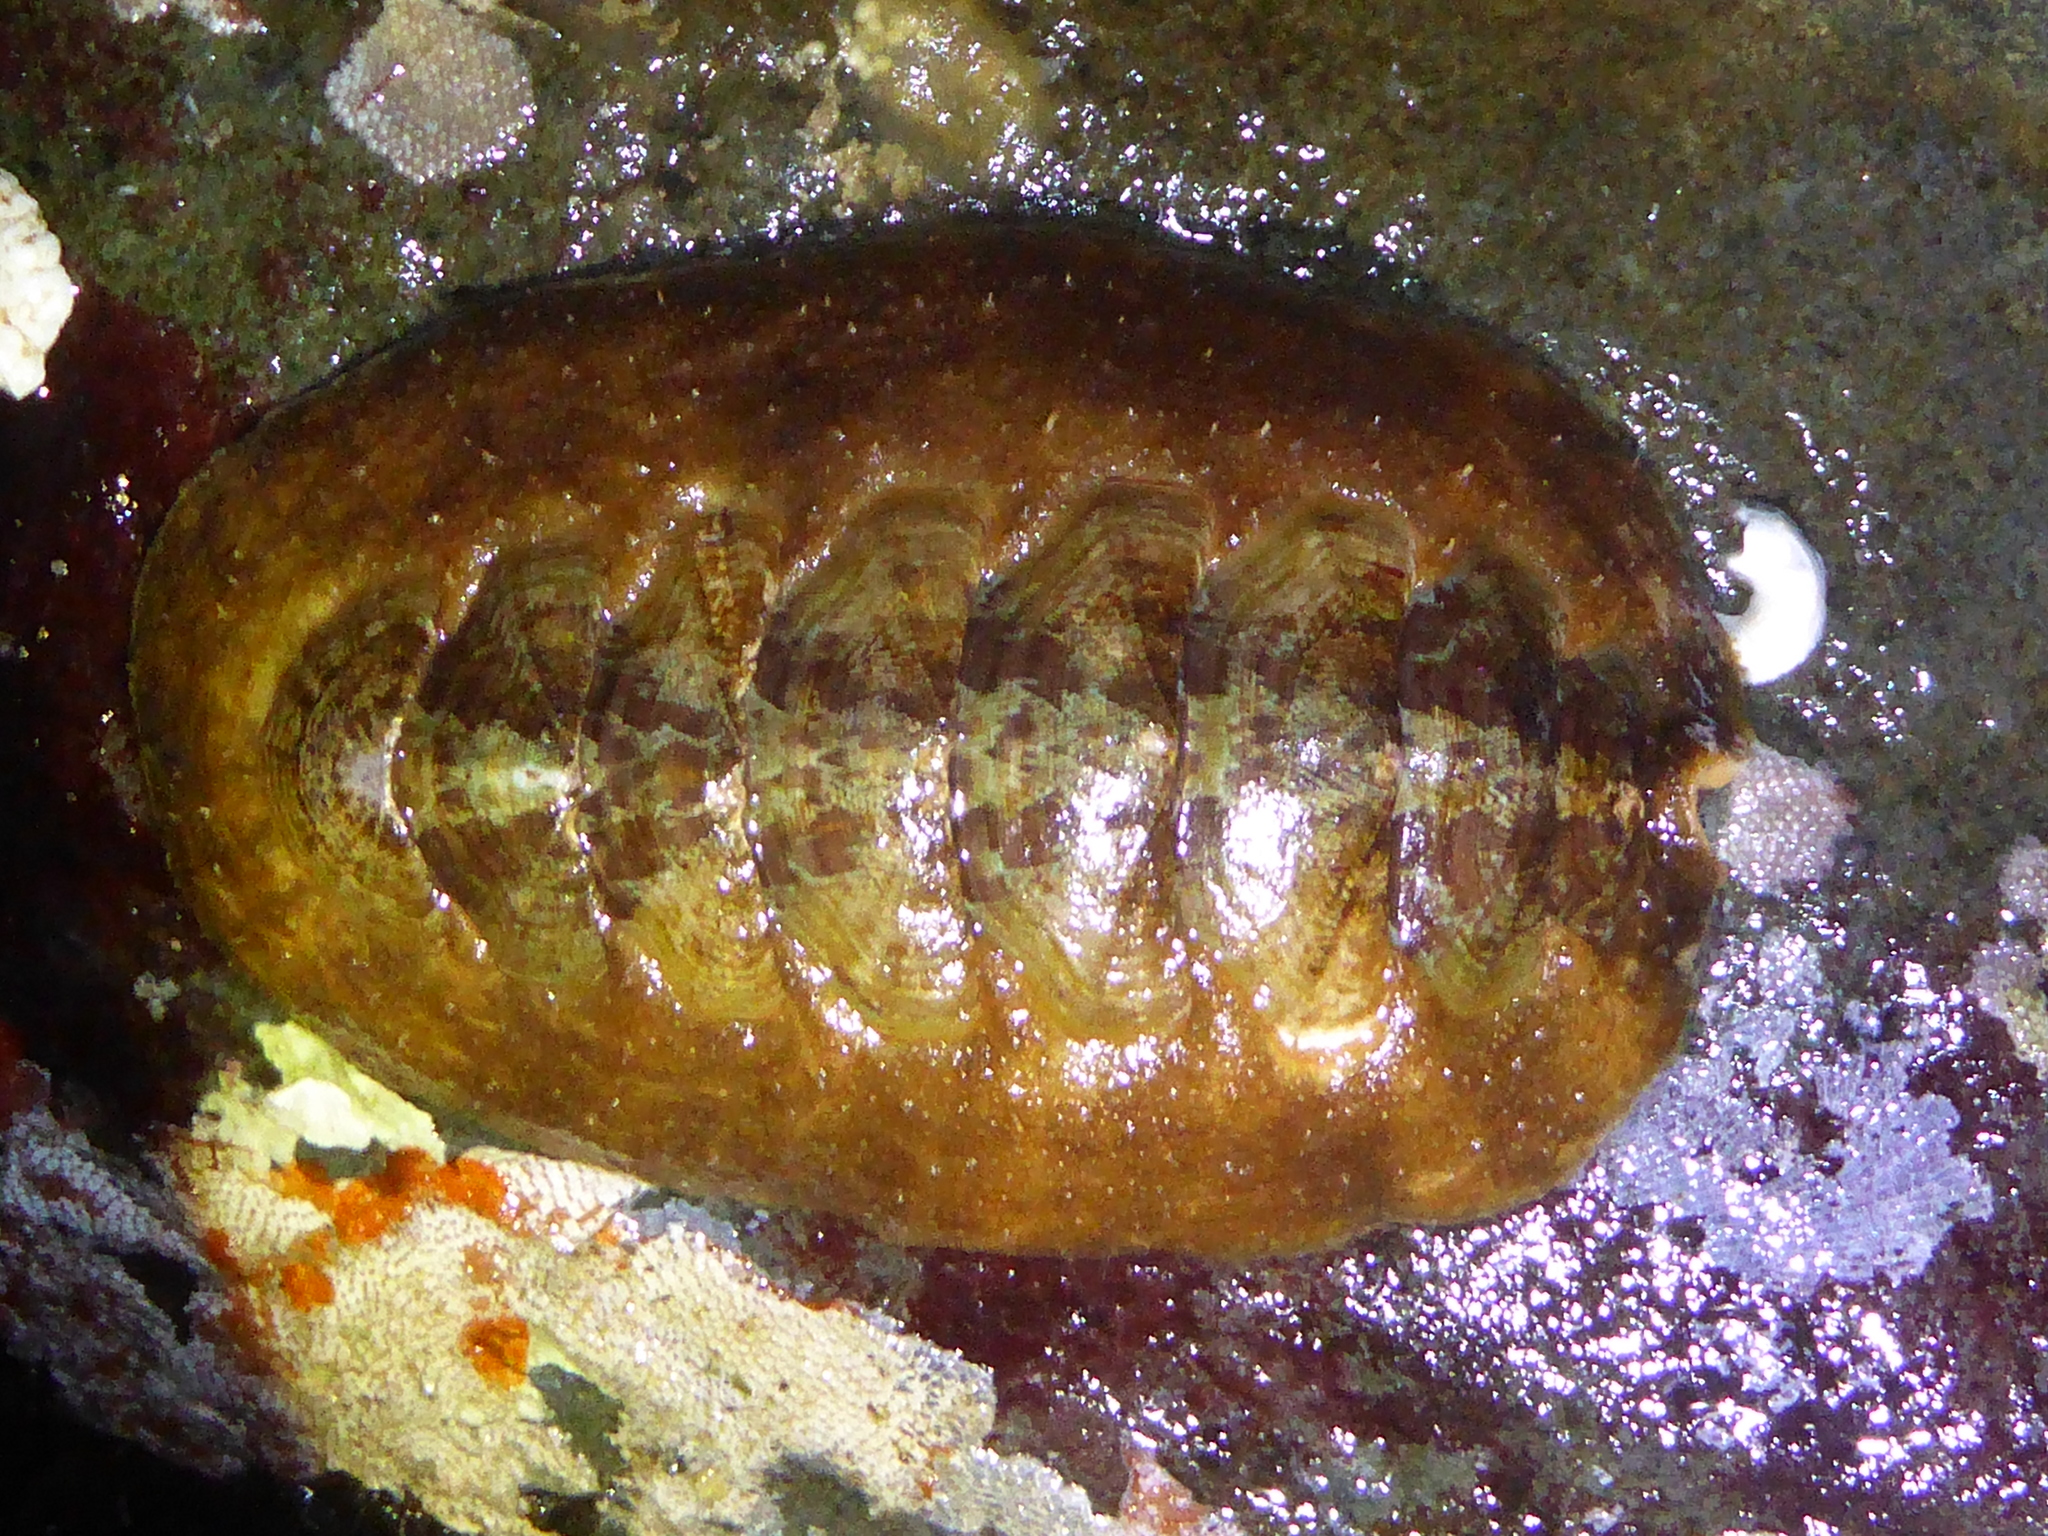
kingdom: Animalia
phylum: Mollusca
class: Polyplacophora
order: Chitonida
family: Mopaliidae
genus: Mopalia
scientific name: Mopalia swanii
